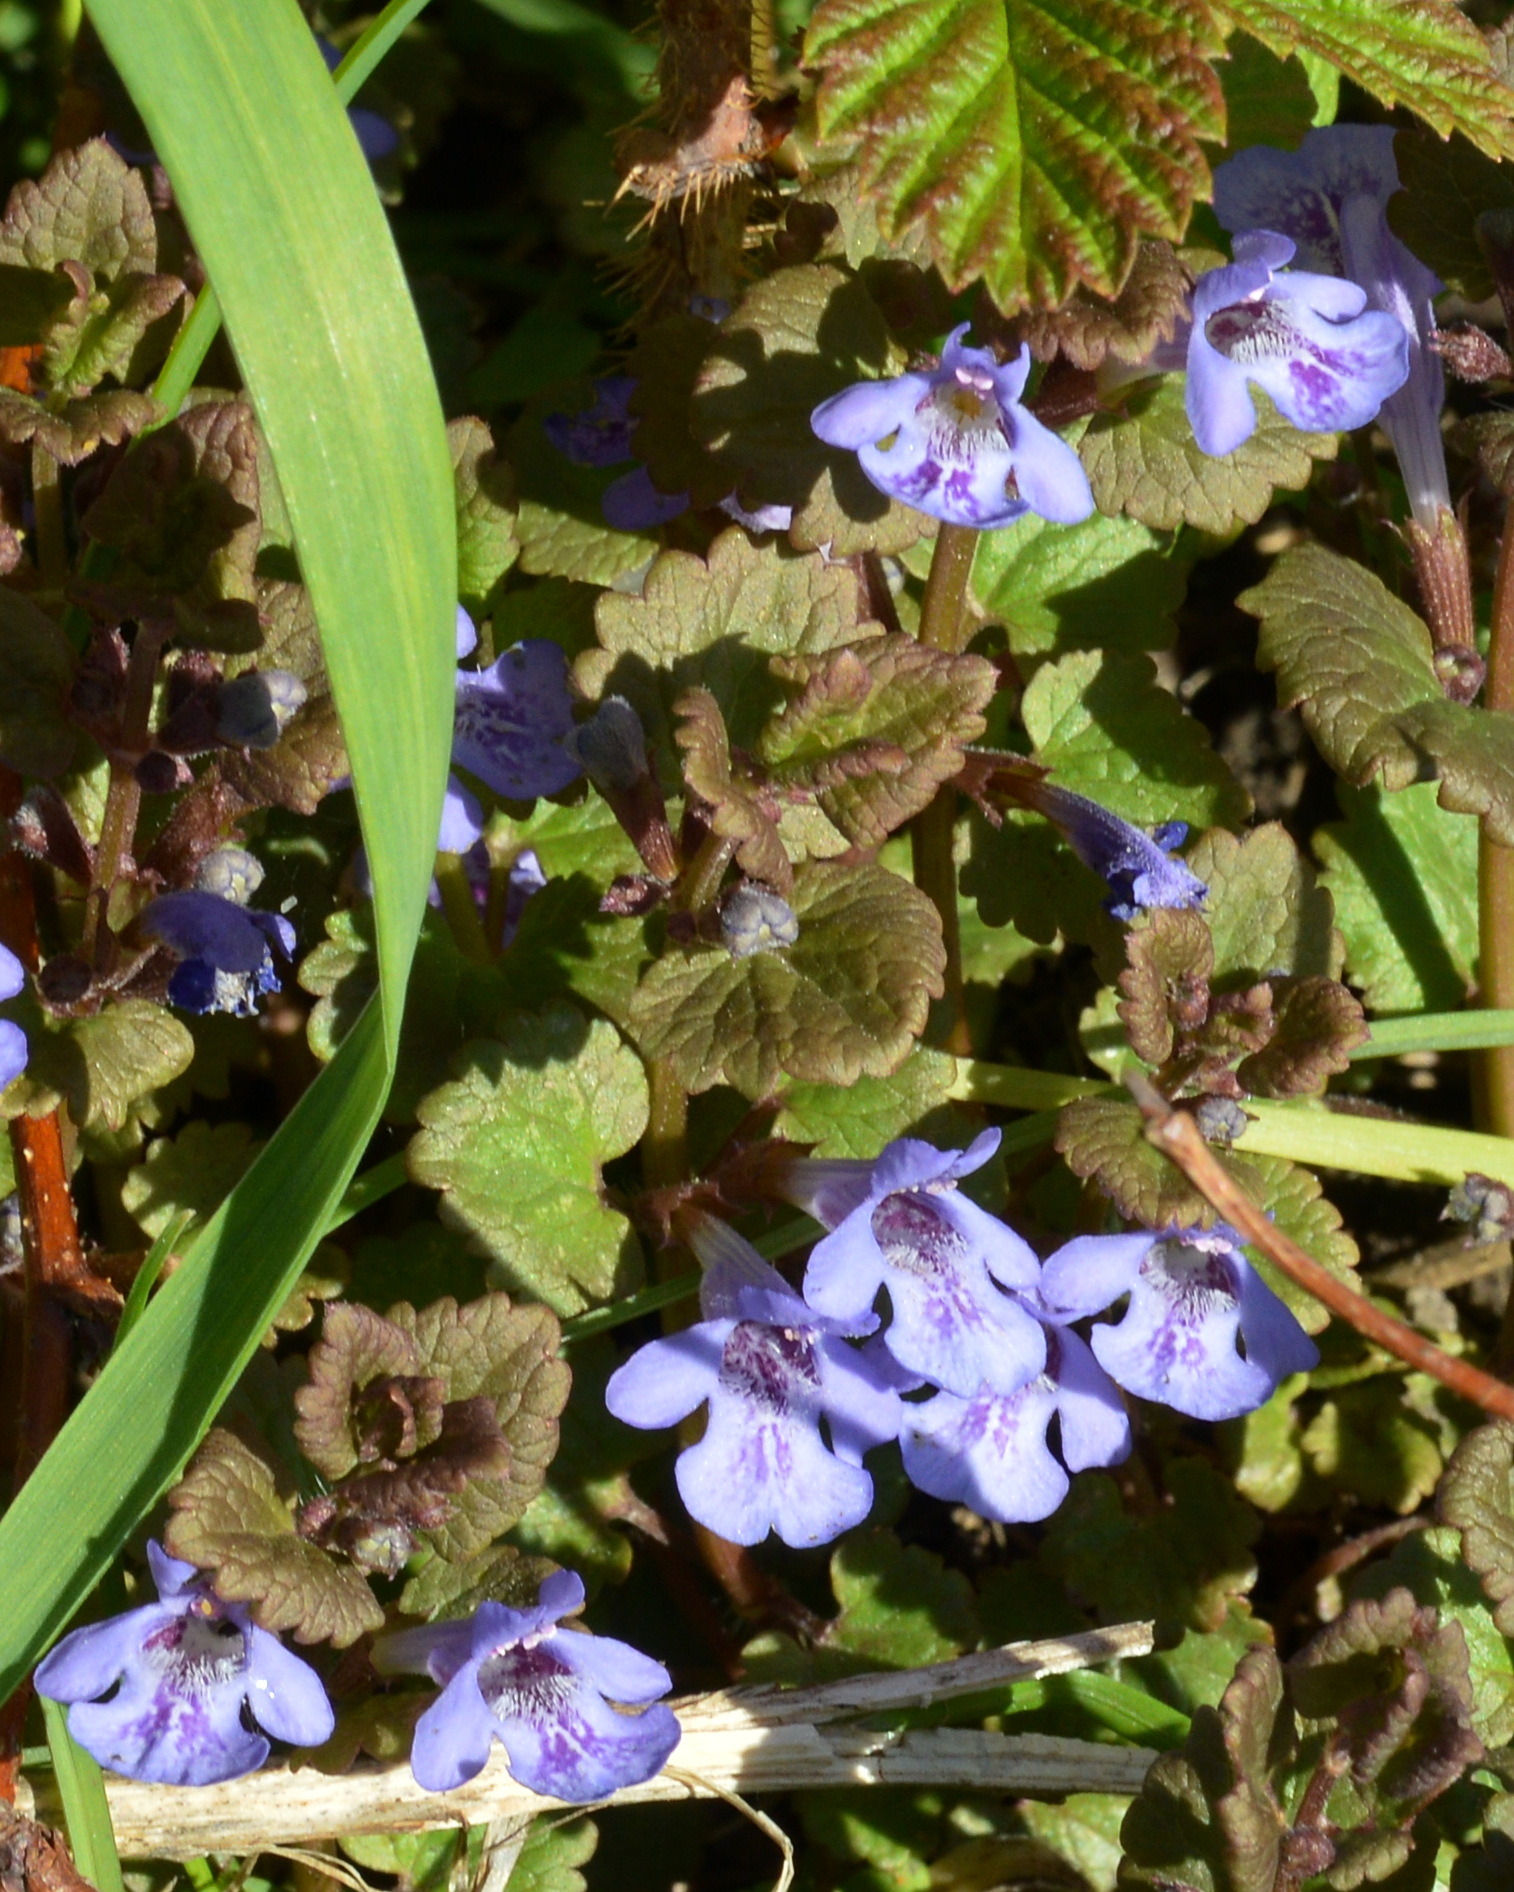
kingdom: Plantae
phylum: Tracheophyta
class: Magnoliopsida
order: Lamiales
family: Lamiaceae
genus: Glechoma
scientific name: Glechoma hederacea
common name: Ground ivy
